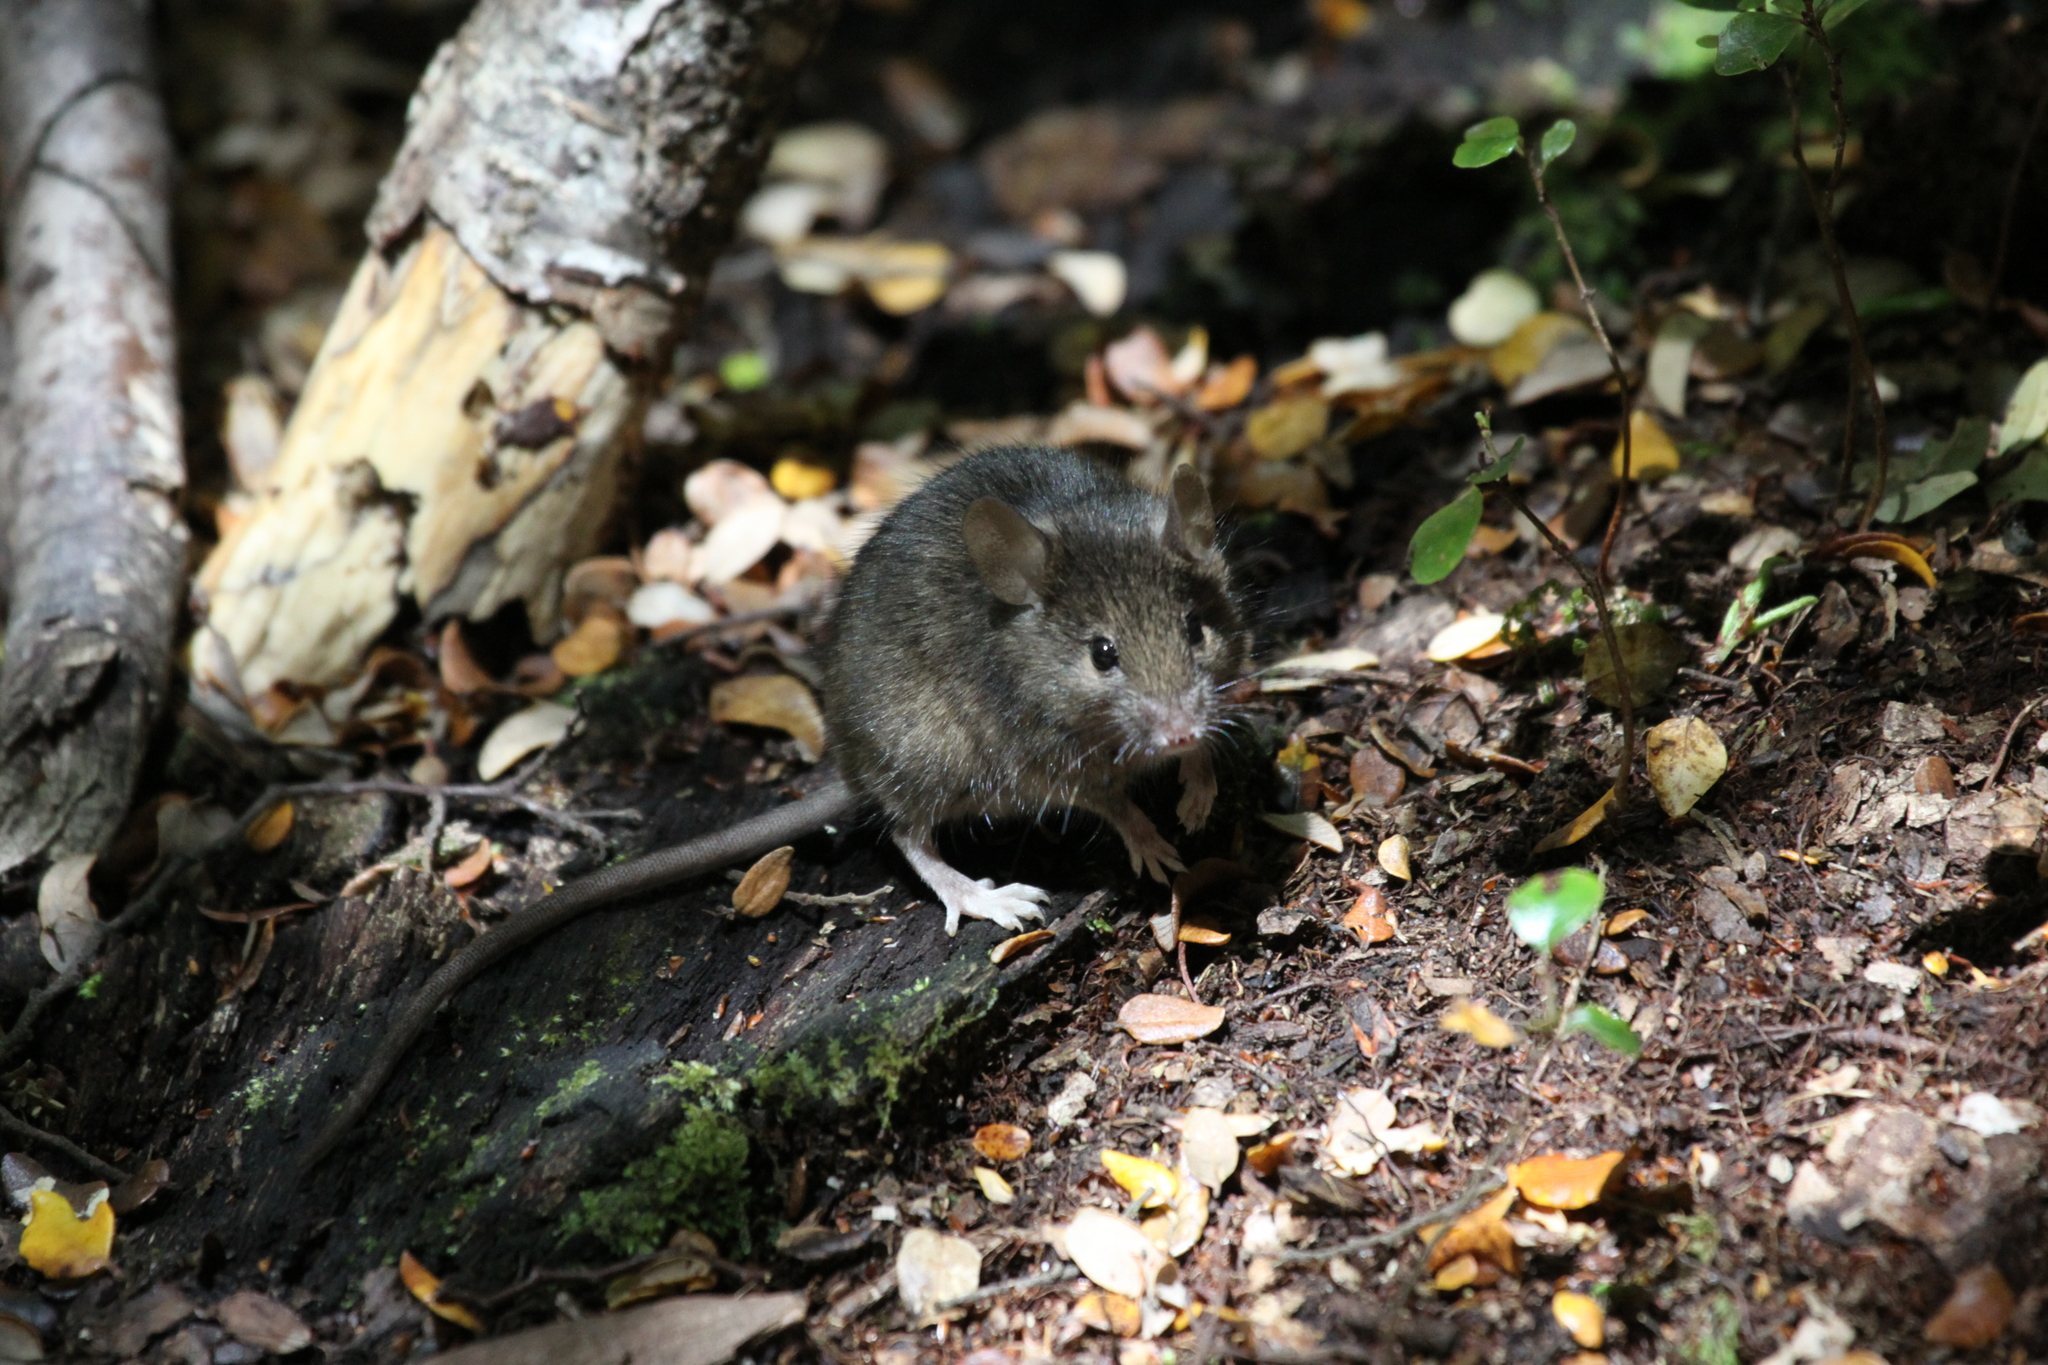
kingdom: Animalia
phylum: Chordata
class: Mammalia
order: Rodentia
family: Muridae
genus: Mus
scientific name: Mus musculus
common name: House mouse
